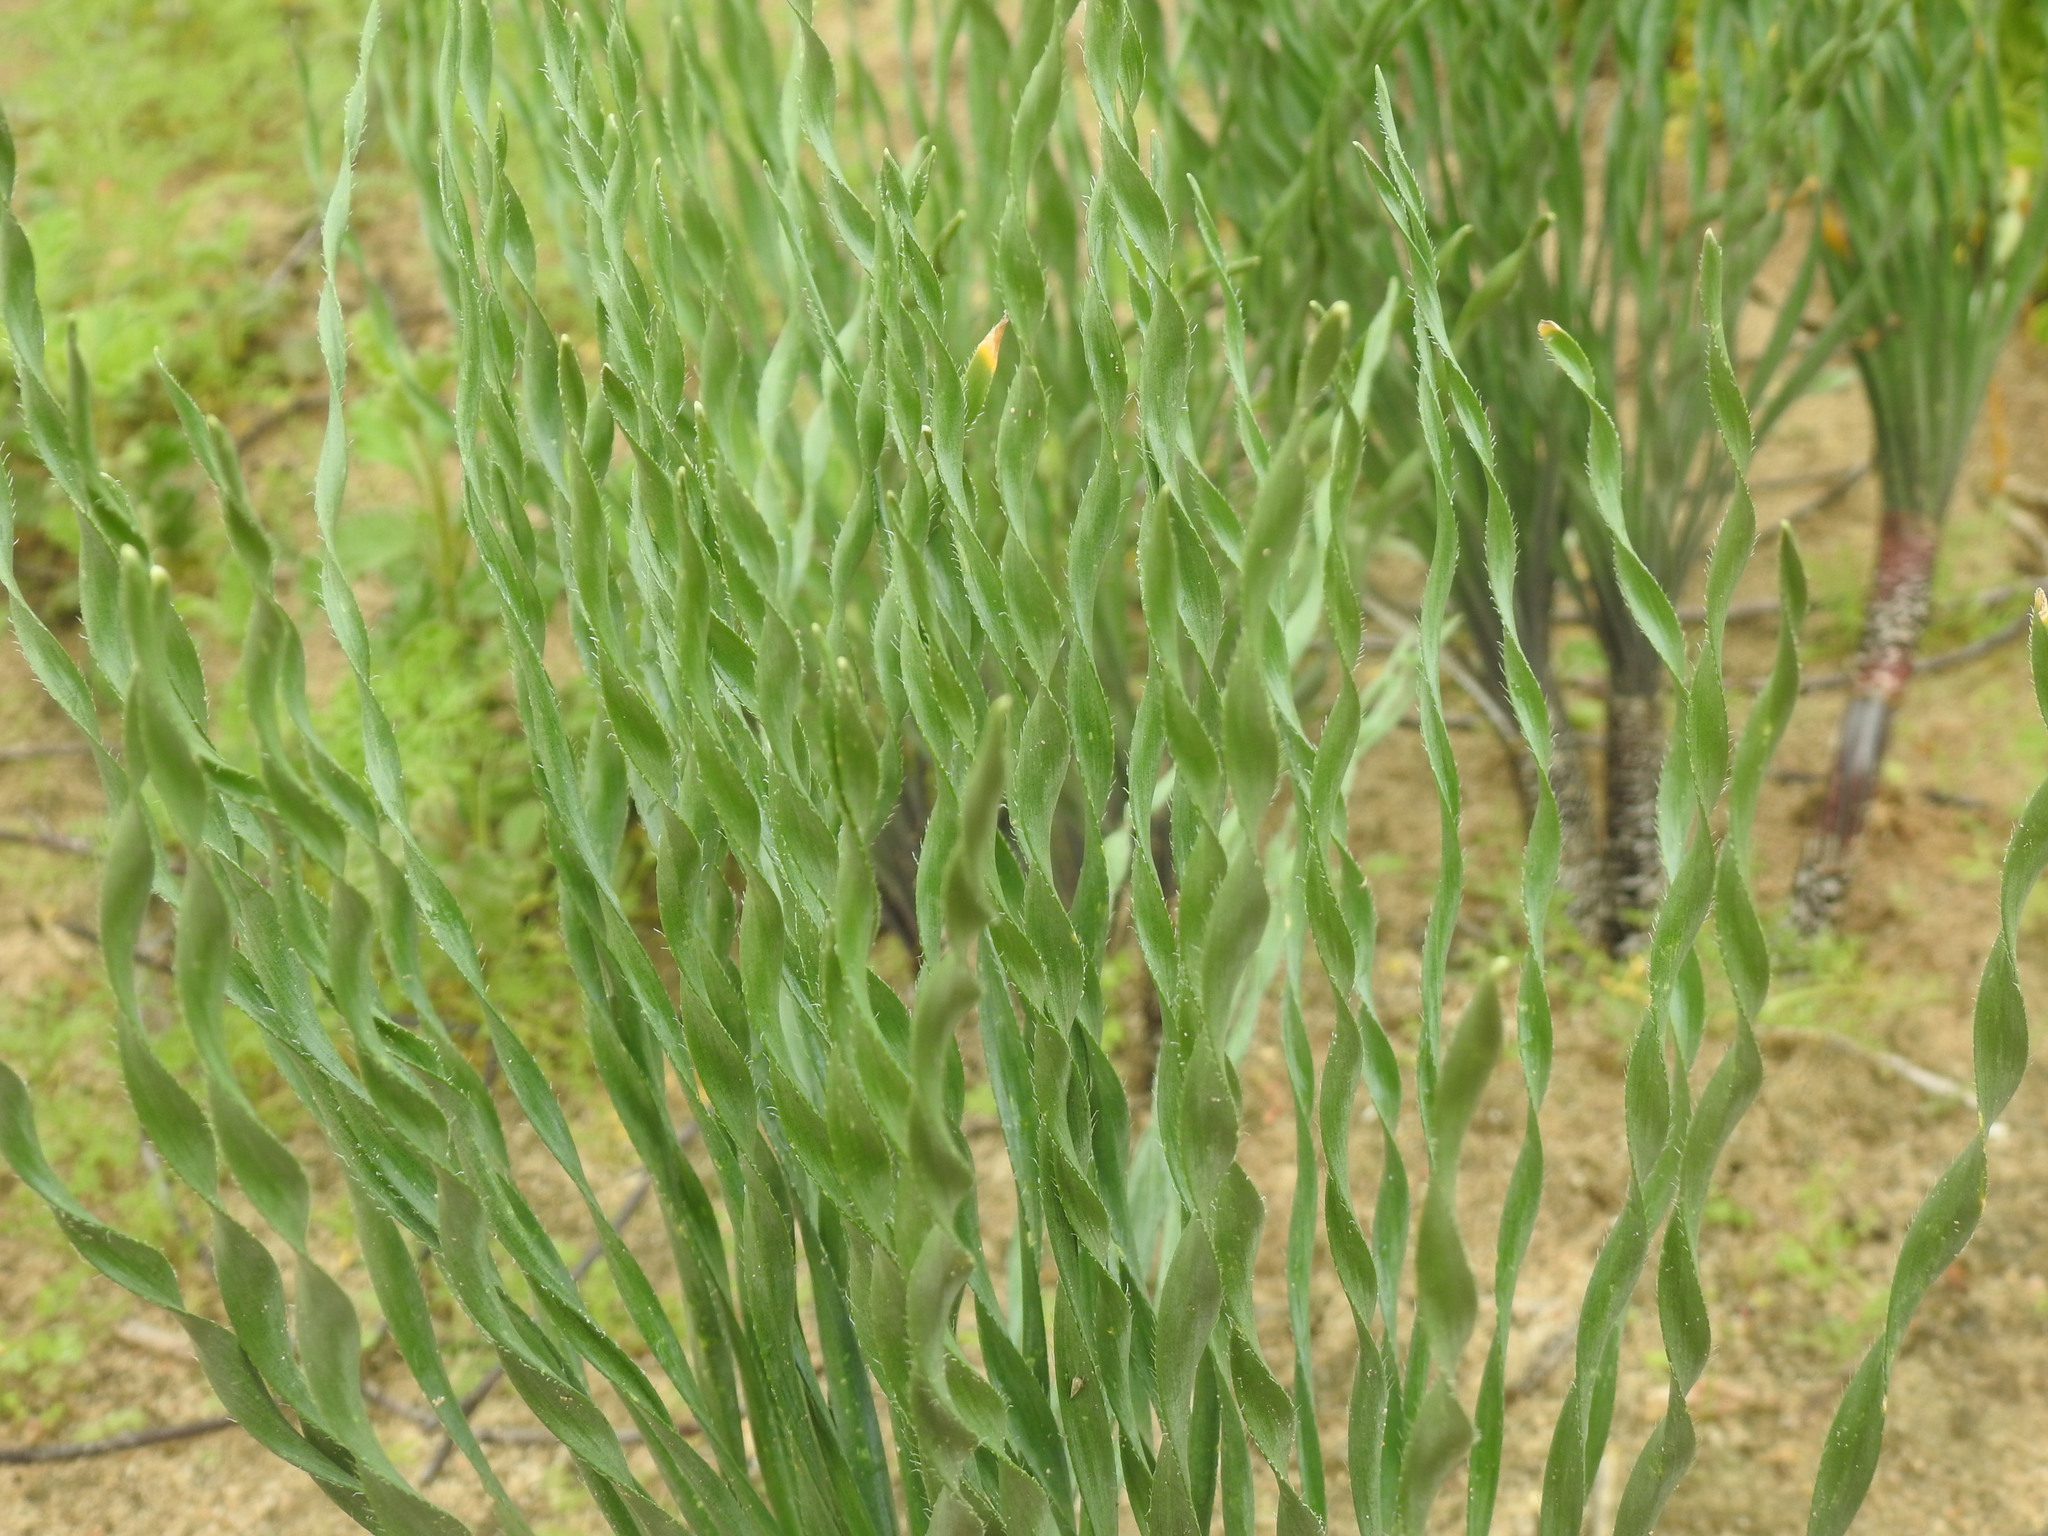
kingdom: Plantae
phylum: Tracheophyta
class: Liliopsida
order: Asparagales
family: Amaryllidaceae
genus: Gethyllis
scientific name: Gethyllis ciliaris
